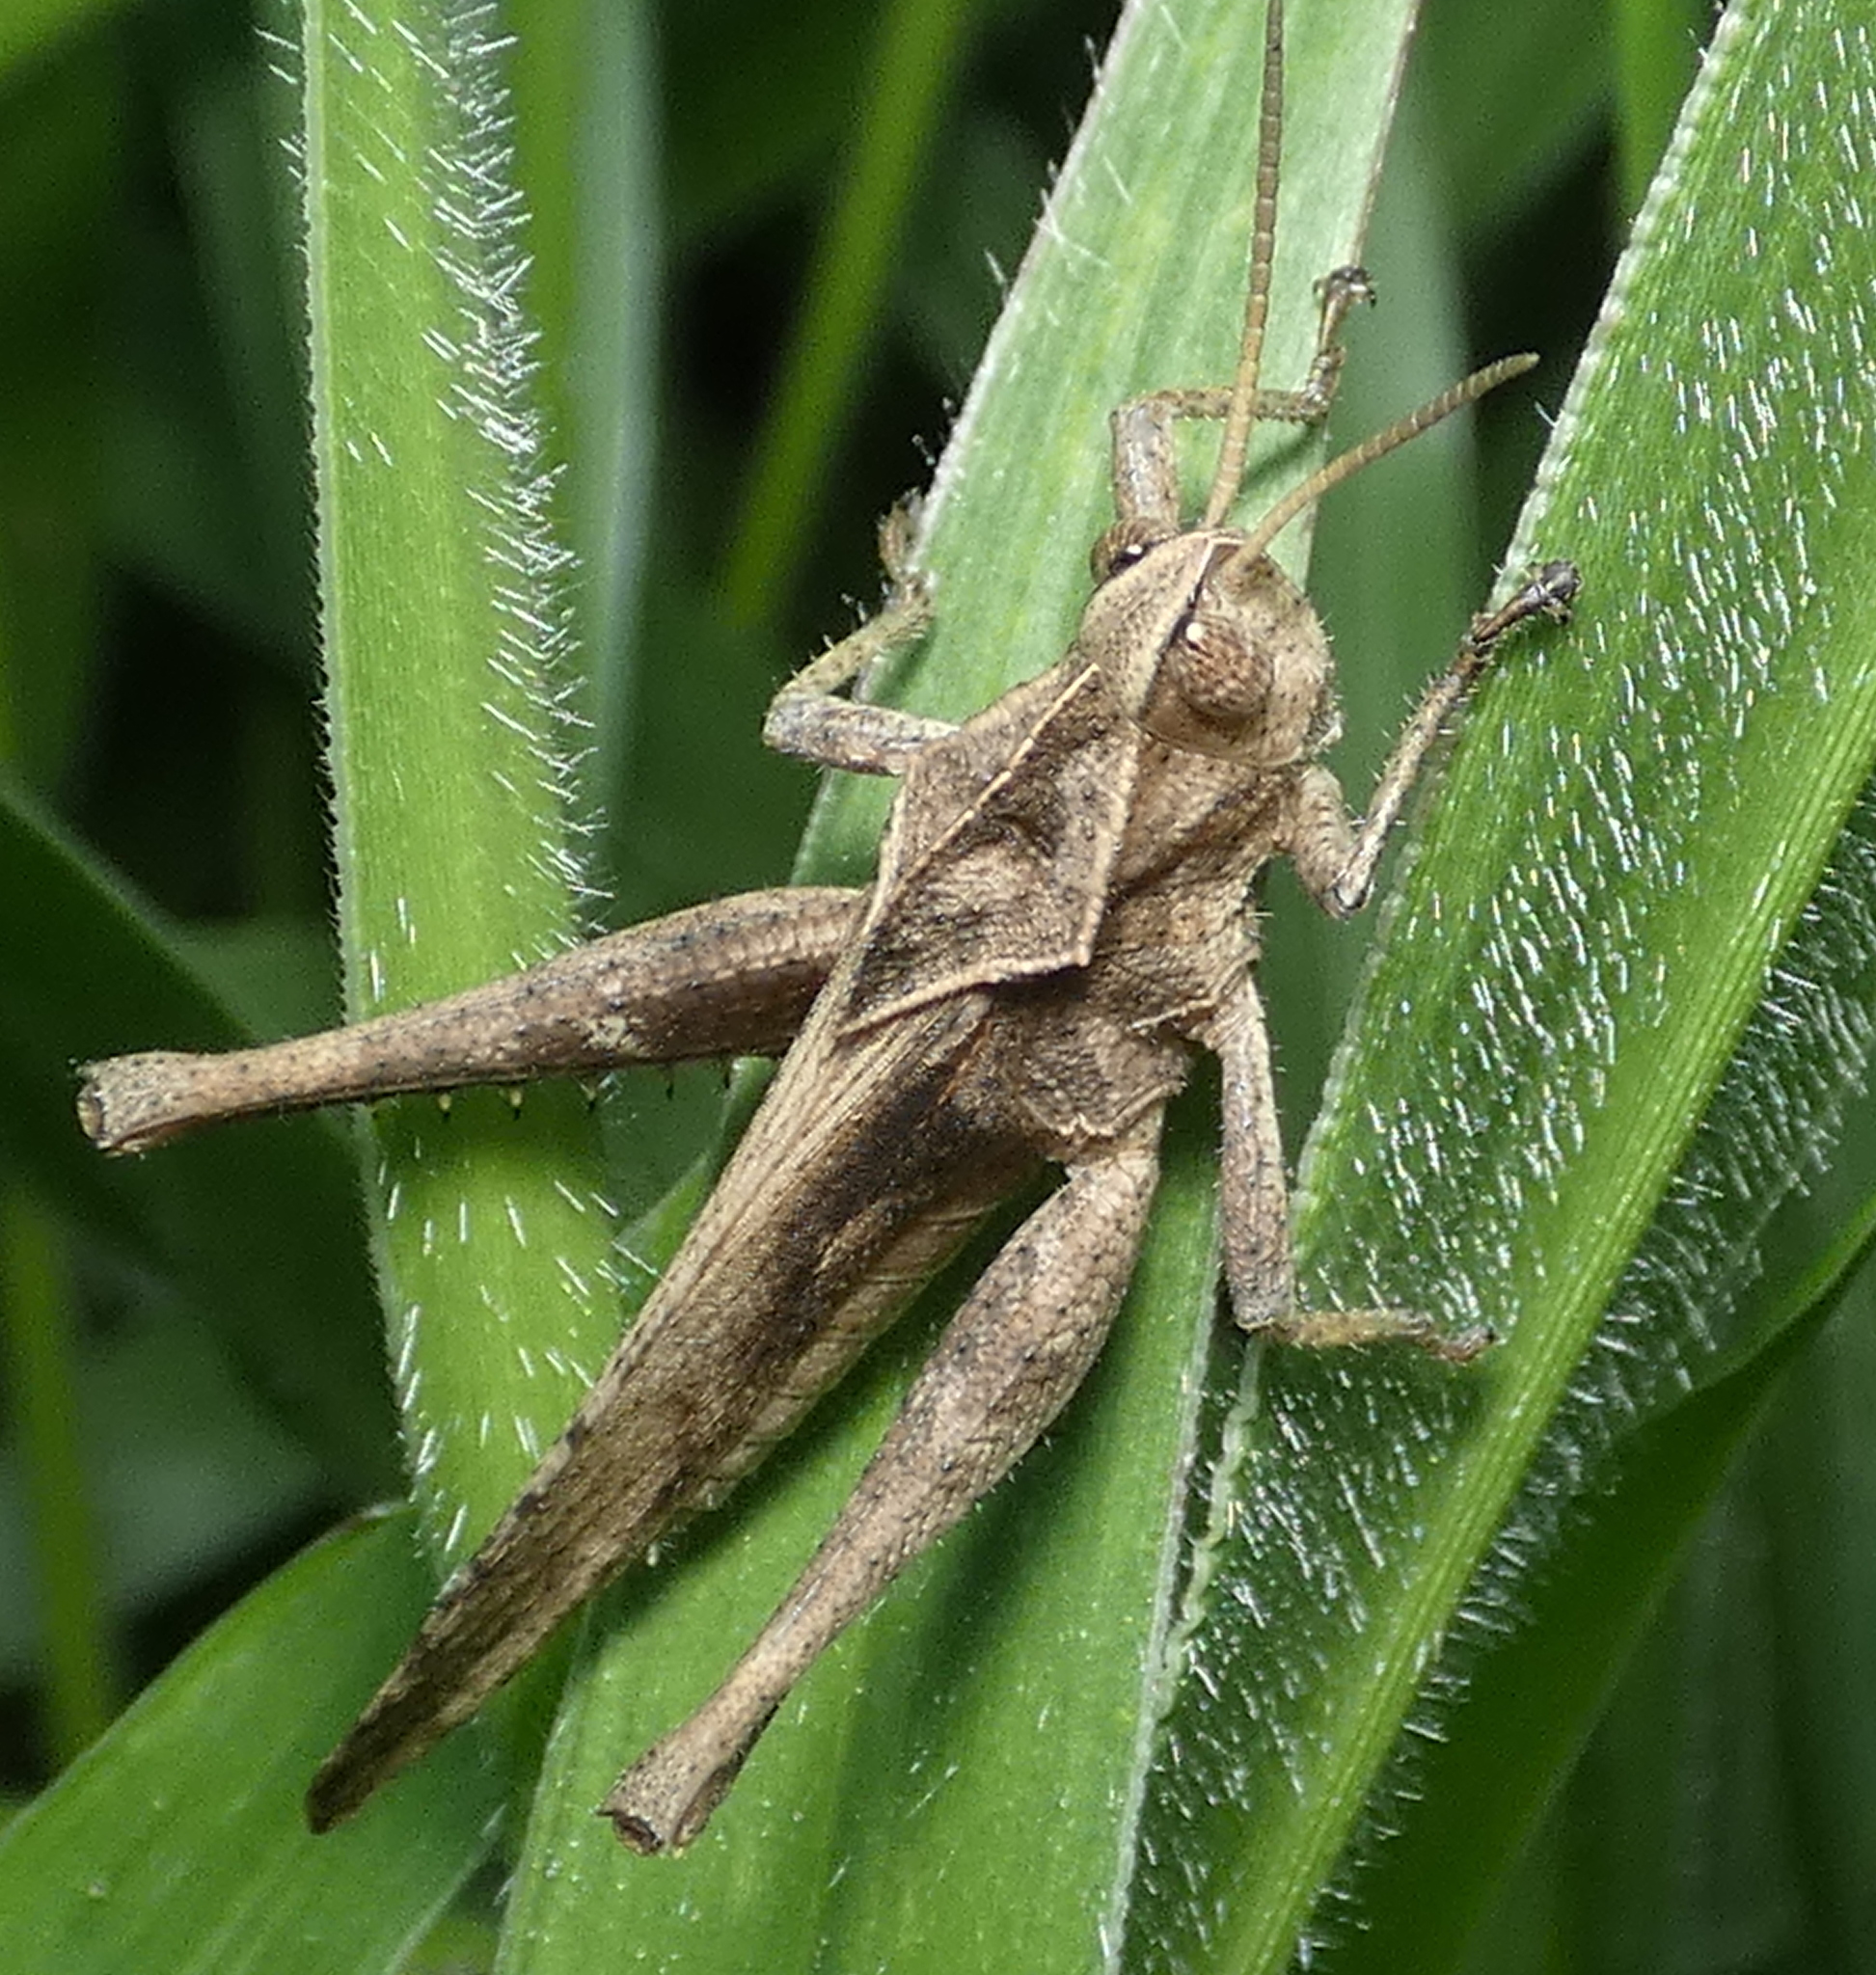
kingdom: Animalia
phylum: Arthropoda
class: Insecta
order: Orthoptera
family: Romaleidae
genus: Xyleus
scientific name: Xyleus discoideus
